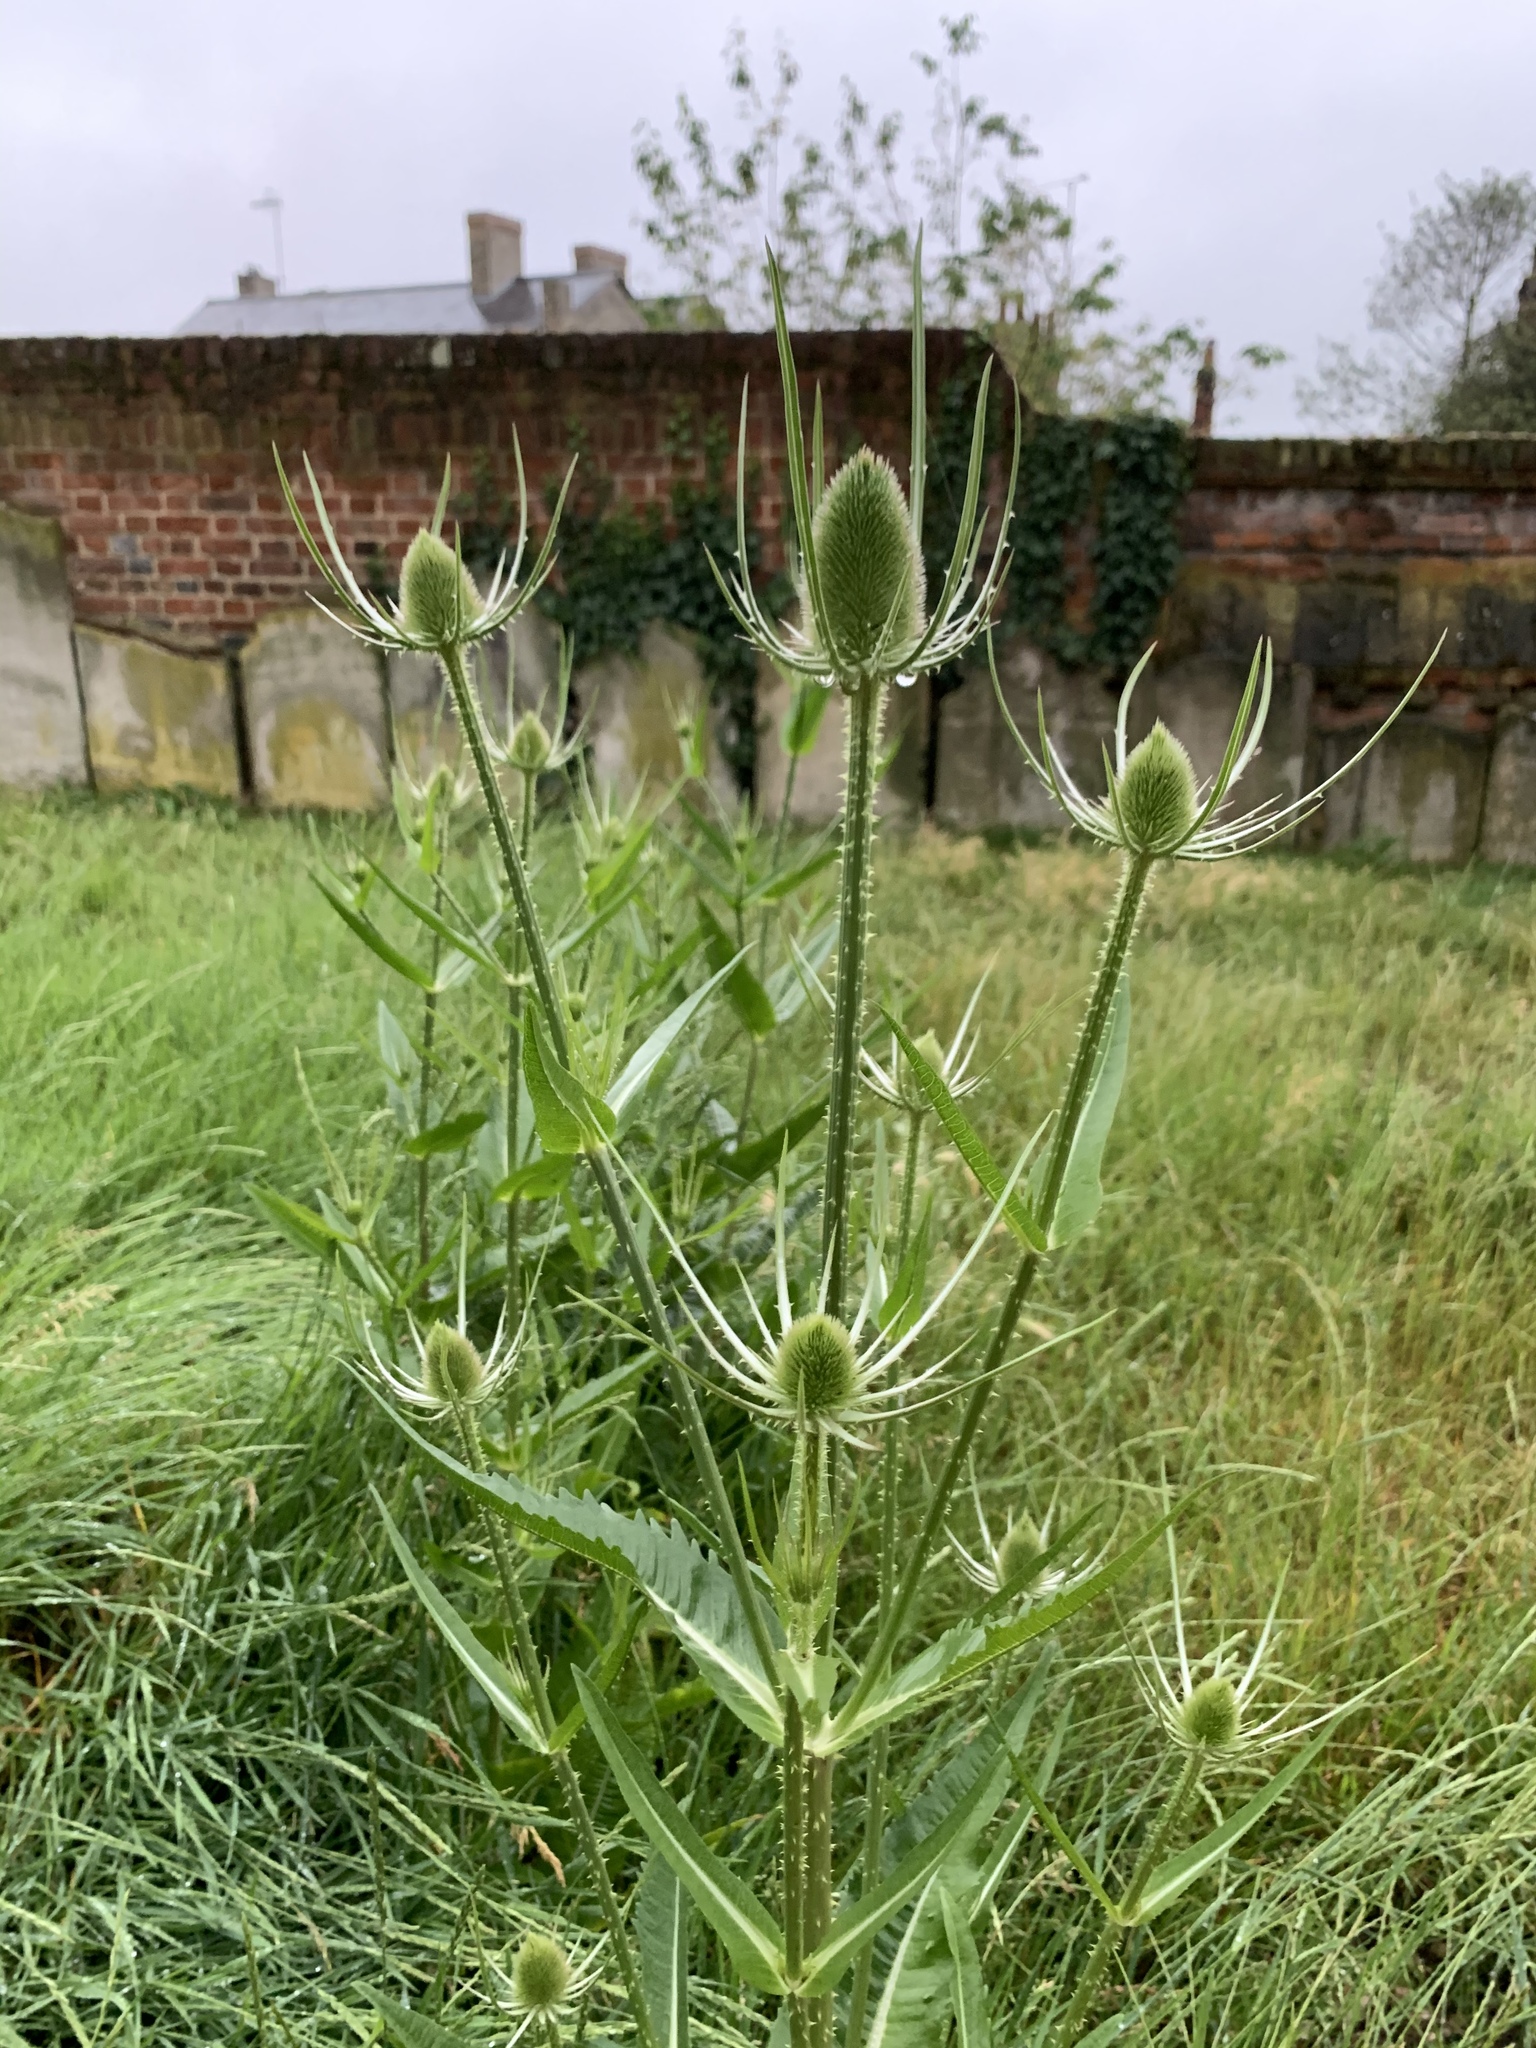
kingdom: Plantae
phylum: Tracheophyta
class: Magnoliopsida
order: Dipsacales
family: Caprifoliaceae
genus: Dipsacus
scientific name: Dipsacus fullonum
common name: Teasel
